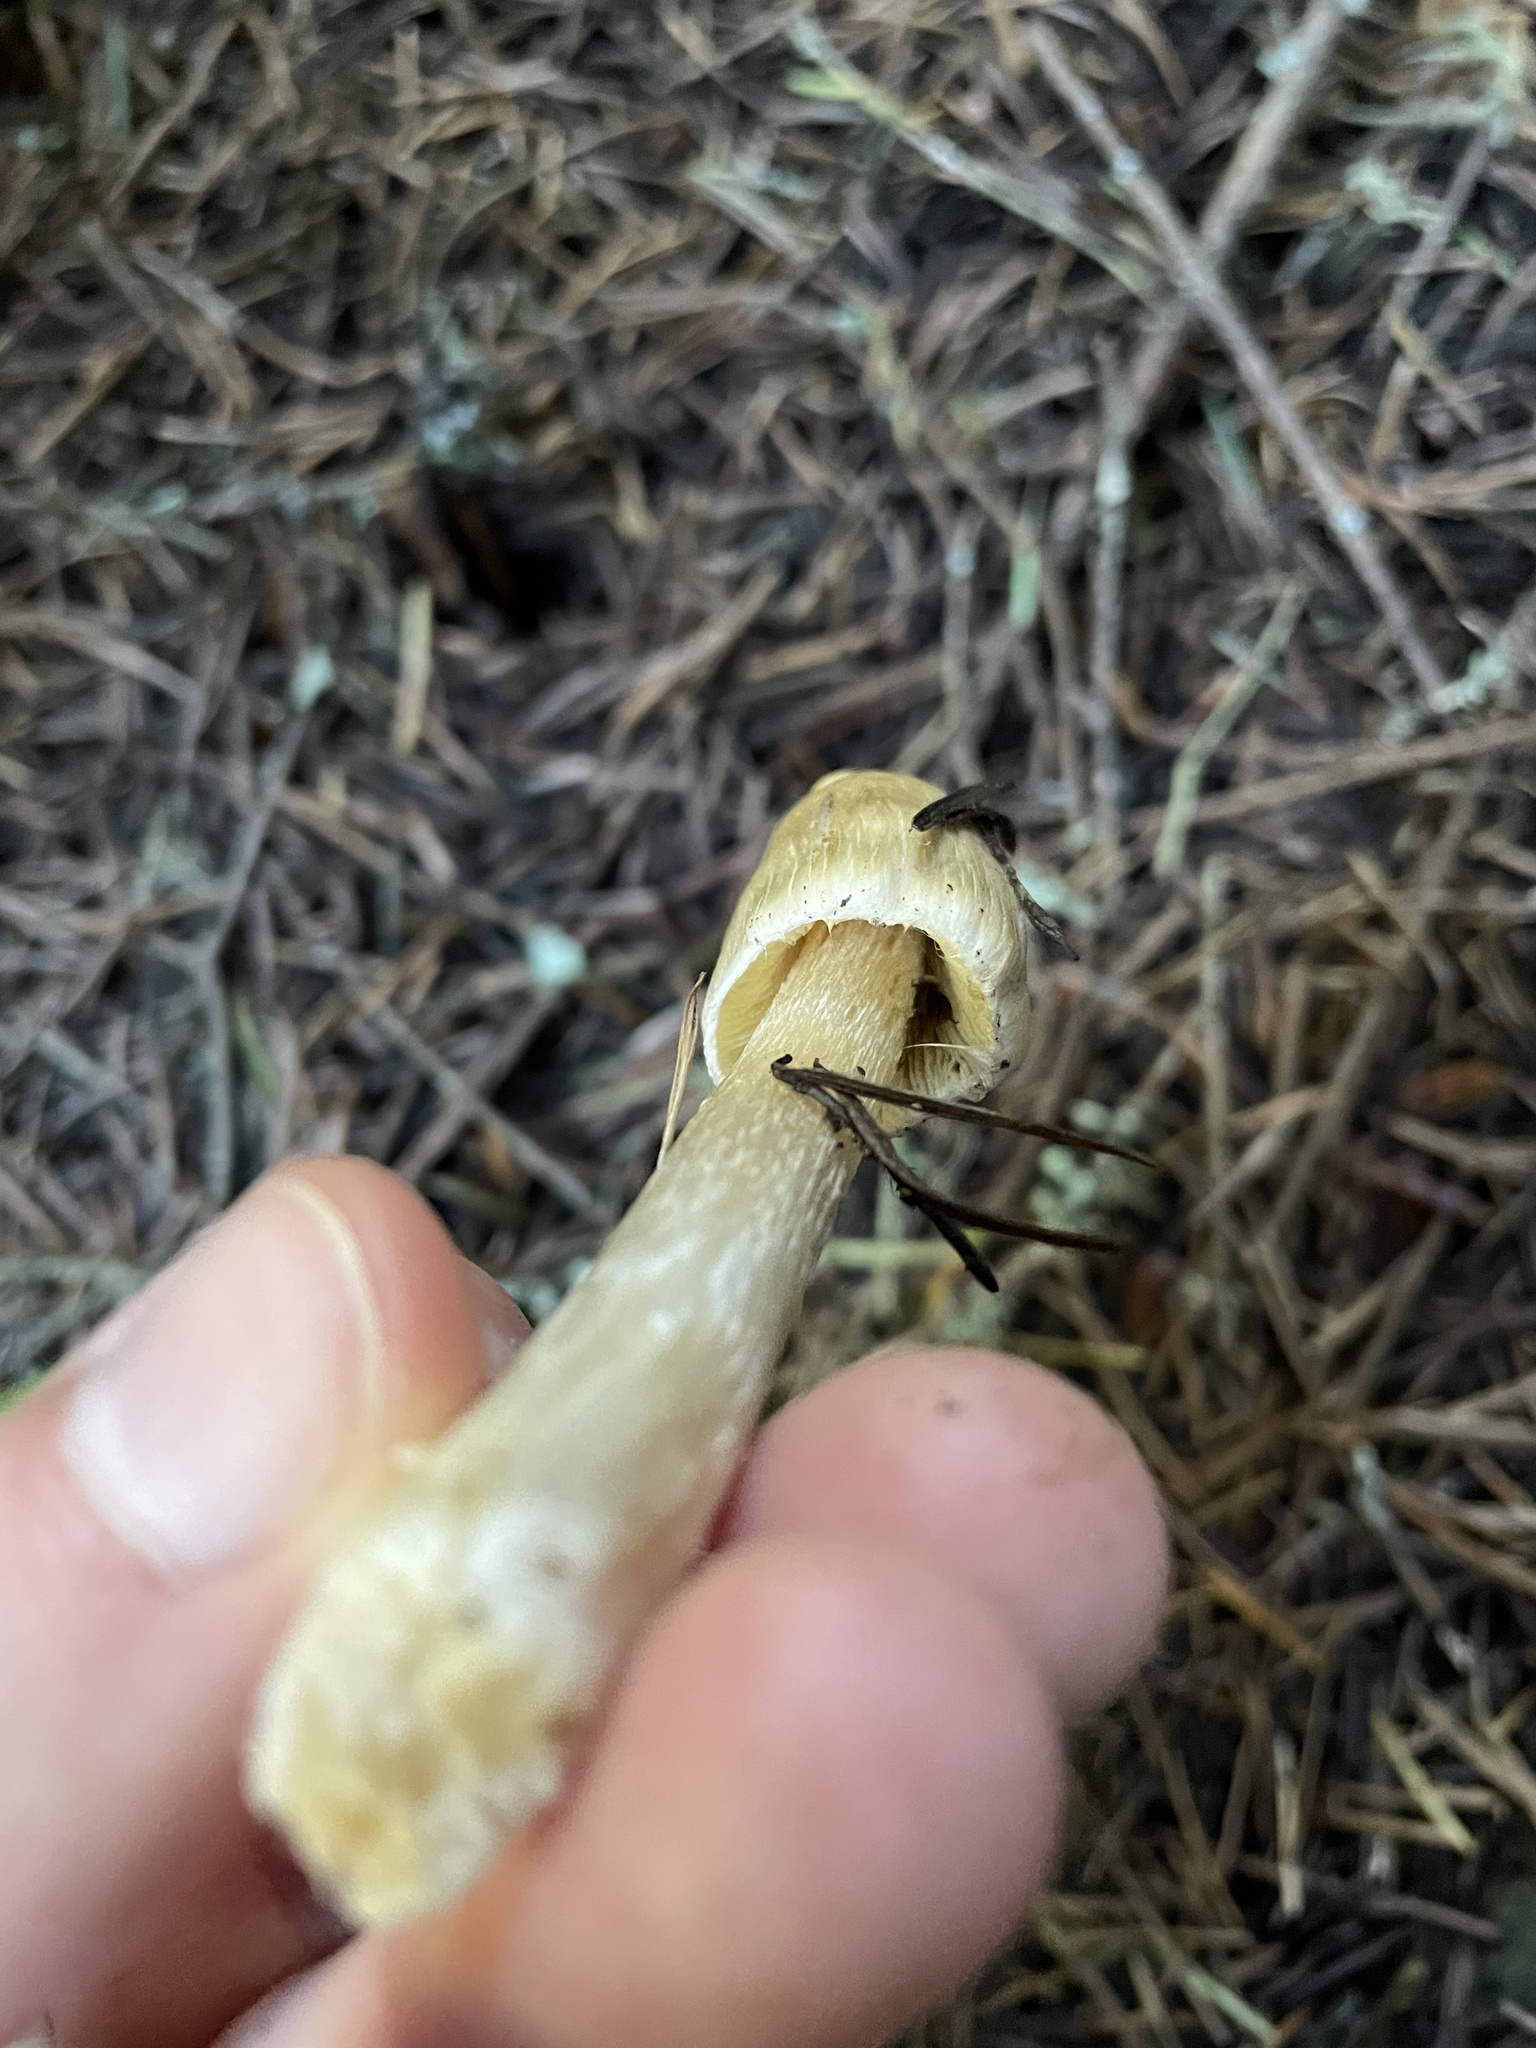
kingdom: Fungi
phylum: Basidiomycota
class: Agaricomycetes
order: Agaricales
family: Inocybaceae
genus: Pseudosperma
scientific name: Pseudosperma sororium
